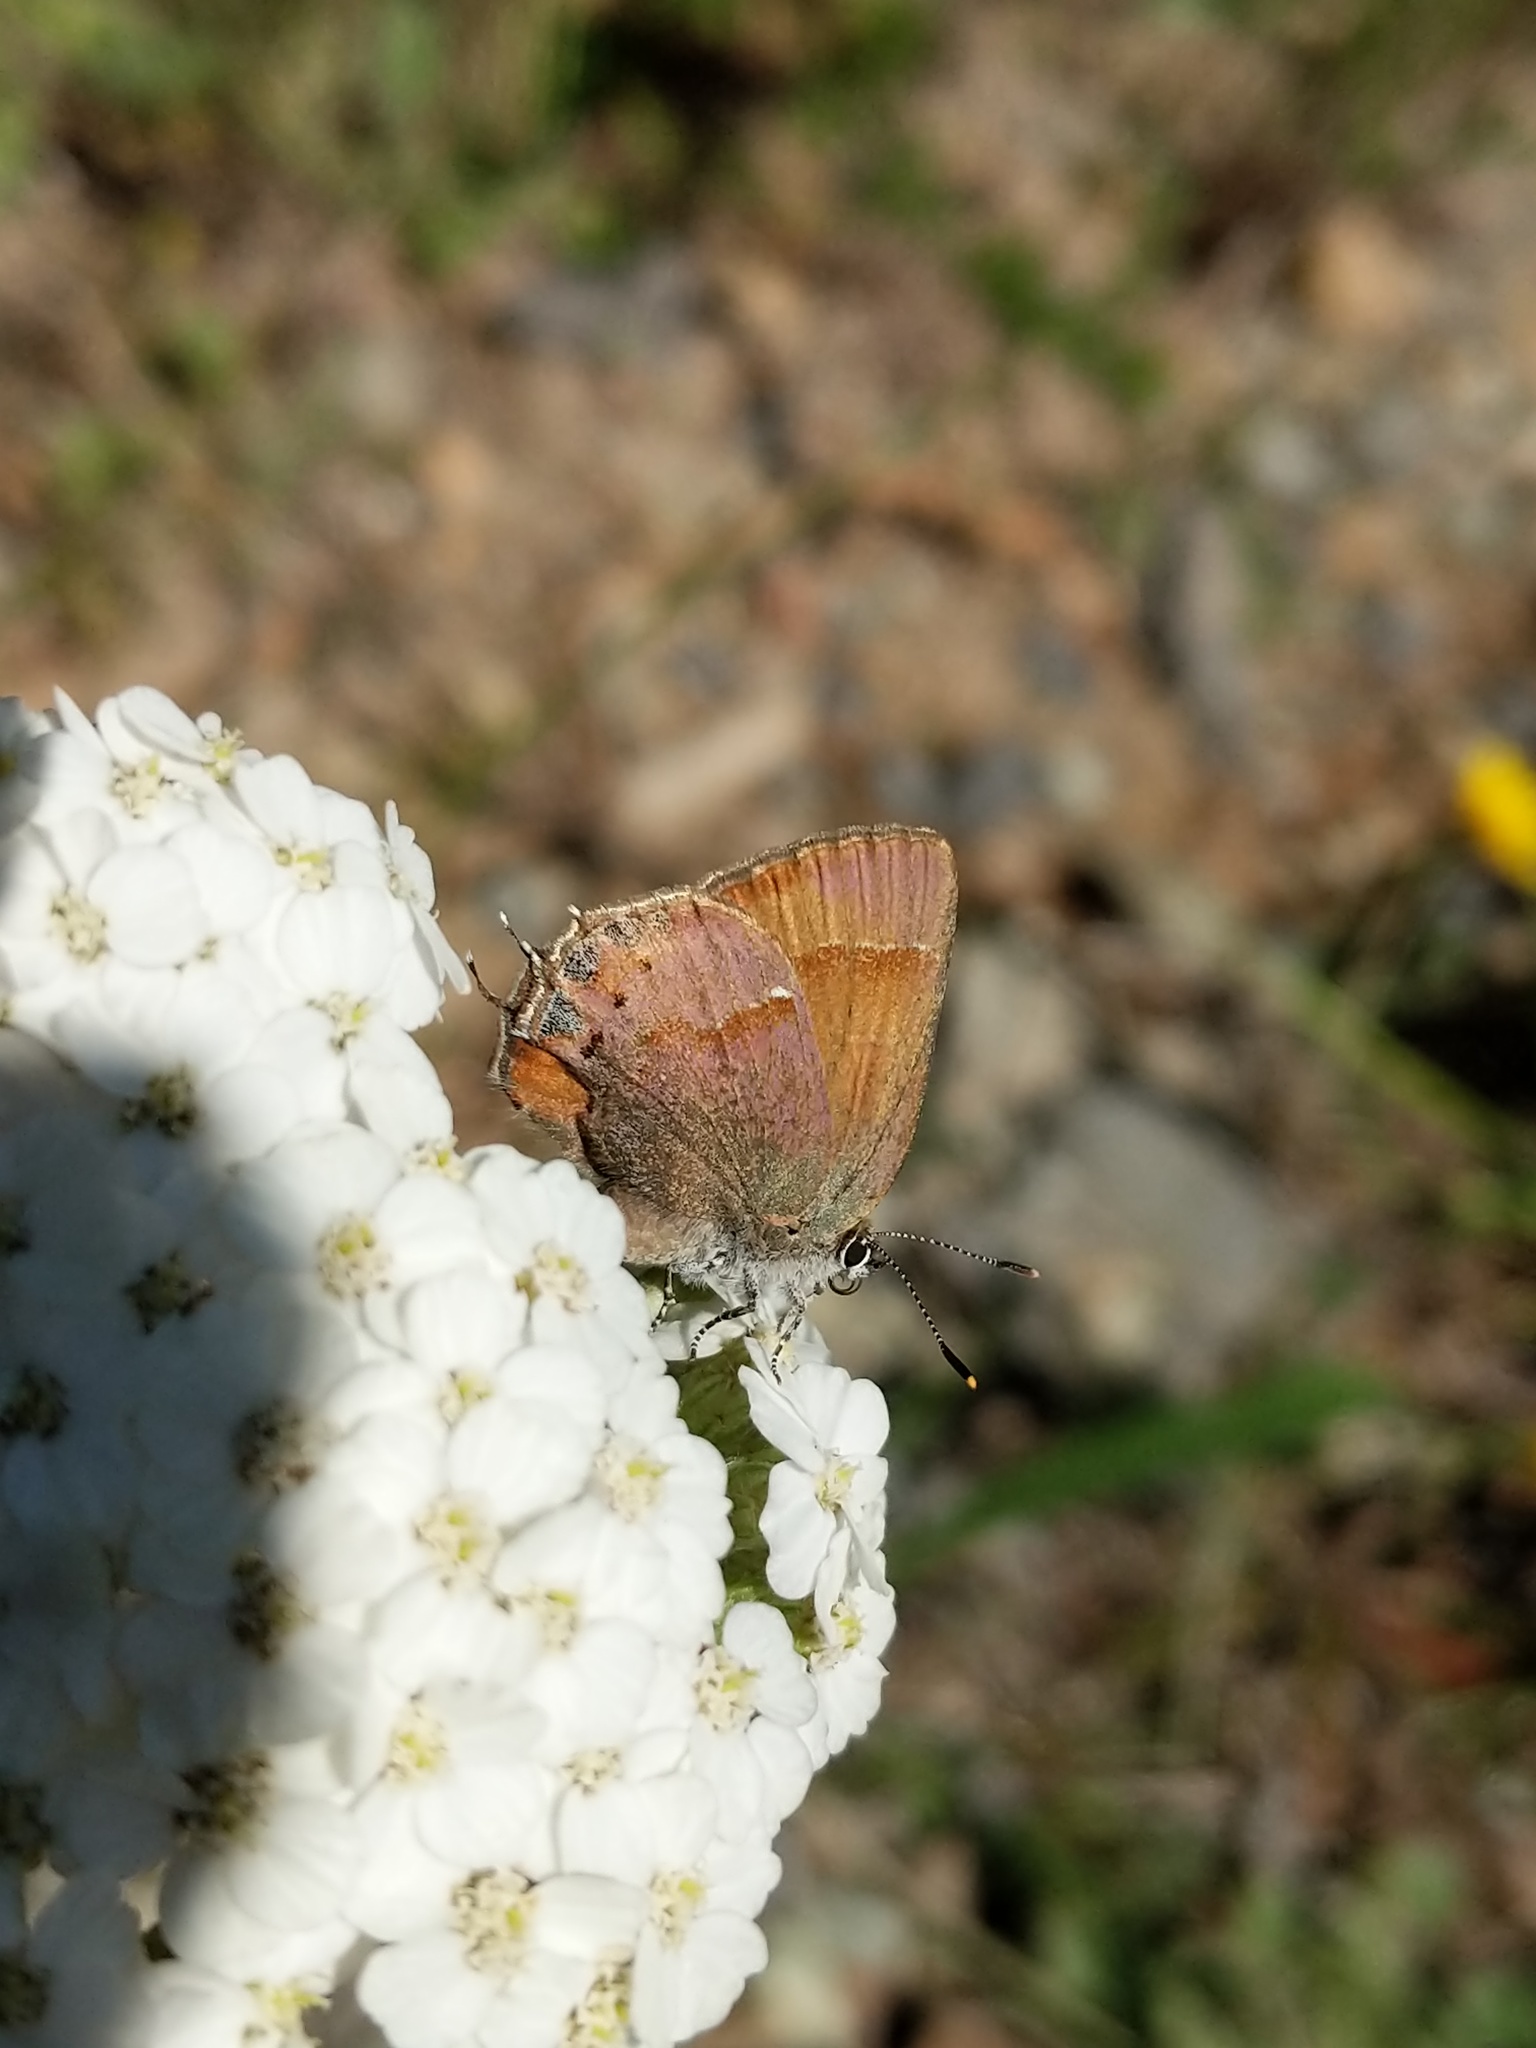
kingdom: Animalia
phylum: Arthropoda
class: Insecta
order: Lepidoptera
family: Lycaenidae
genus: Mitoura
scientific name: Mitoura gryneus
